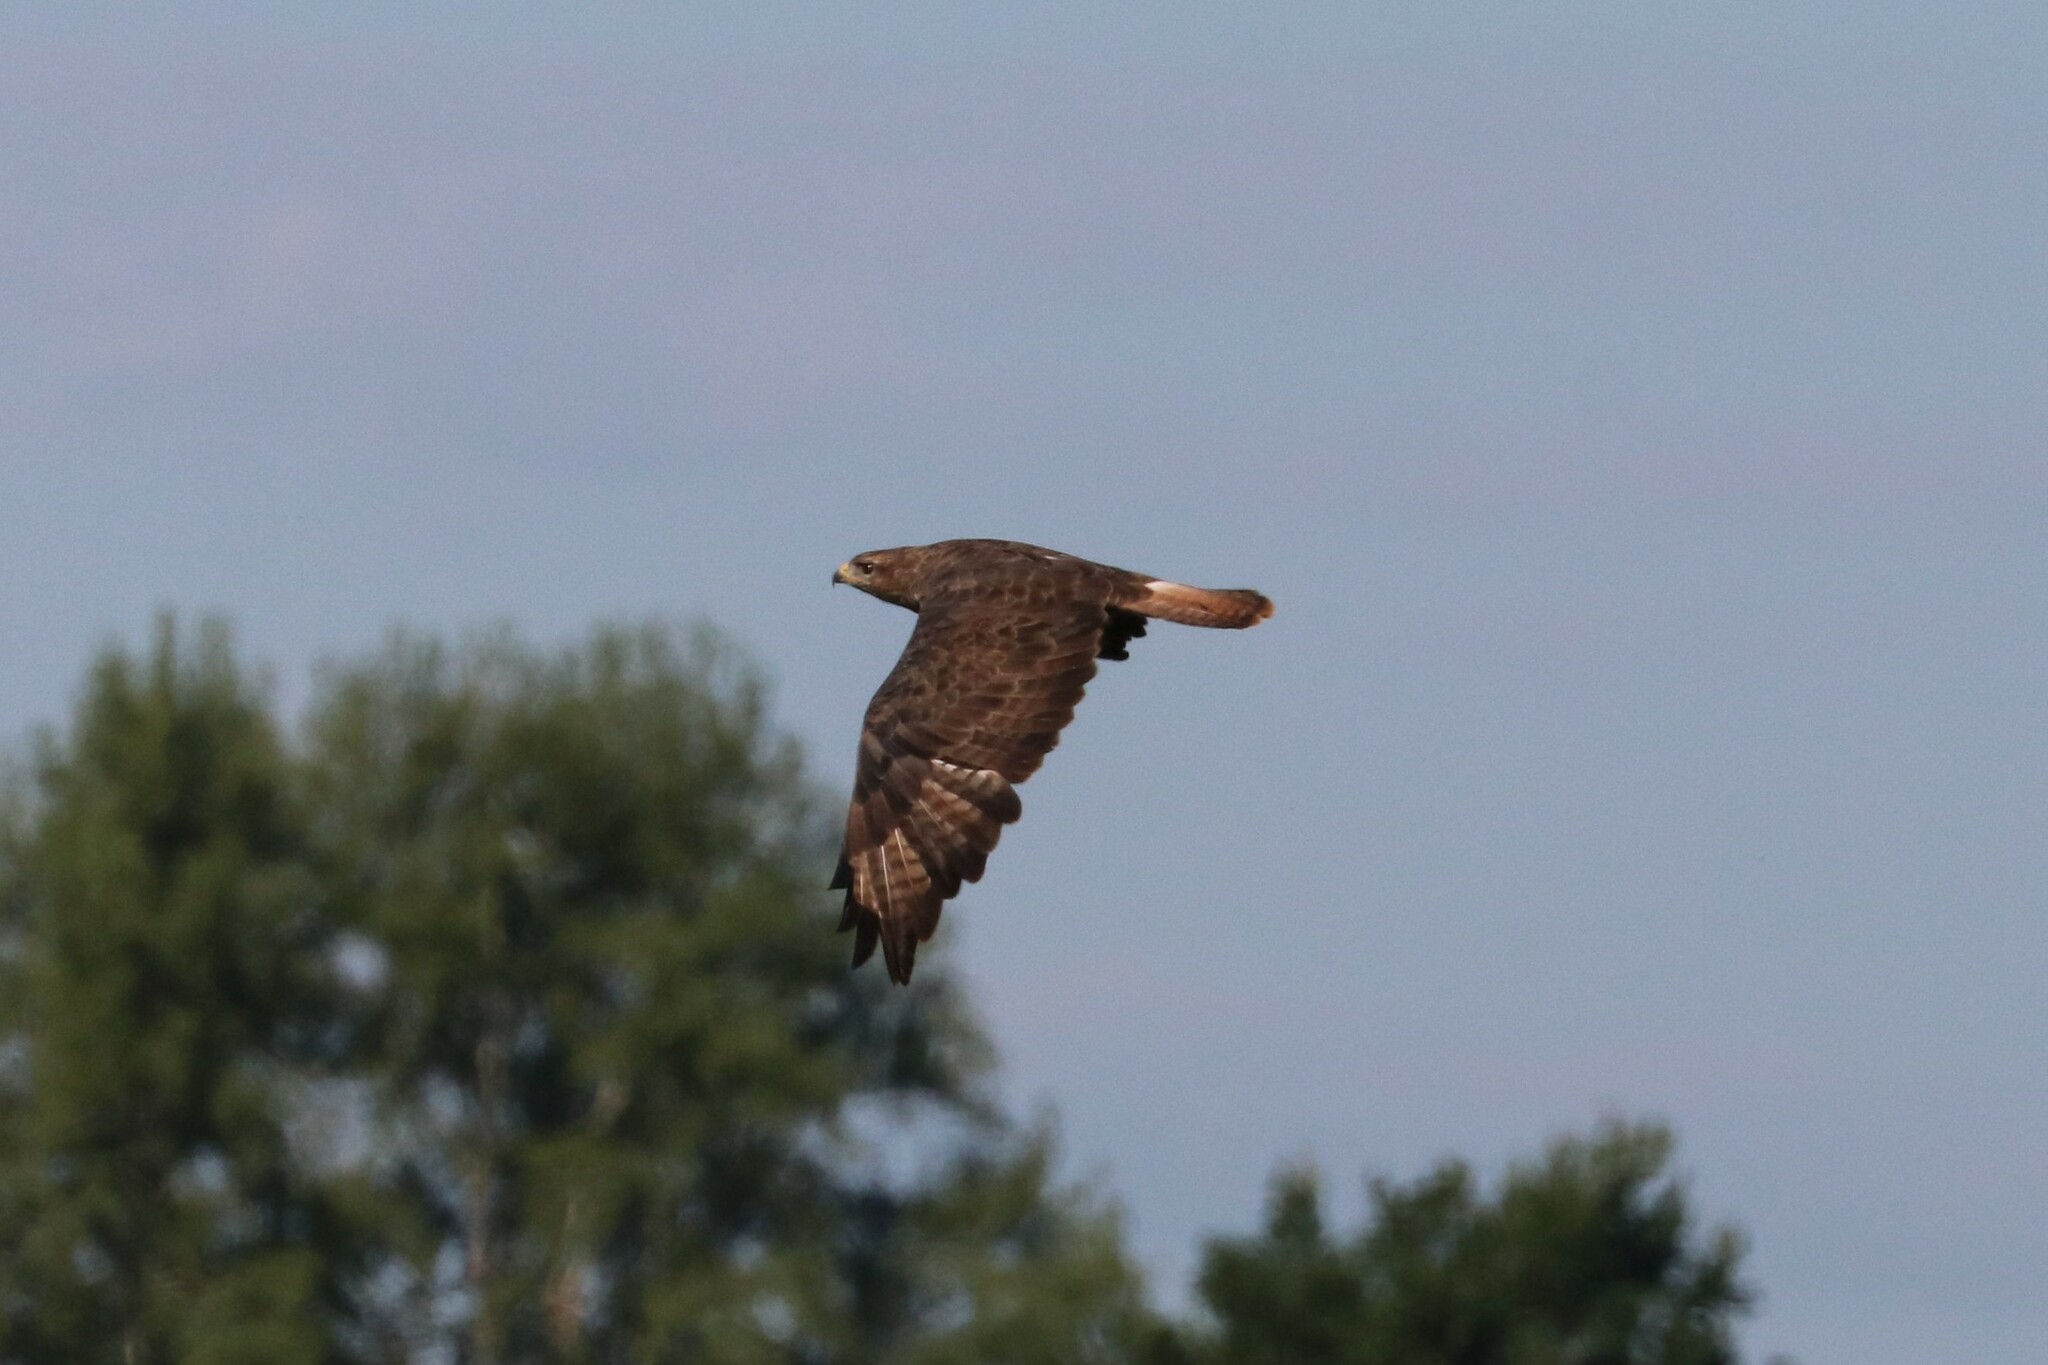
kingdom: Animalia
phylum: Chordata
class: Aves
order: Accipitriformes
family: Accipitridae
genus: Buteo
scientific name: Buteo buteo
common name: Common buzzard
